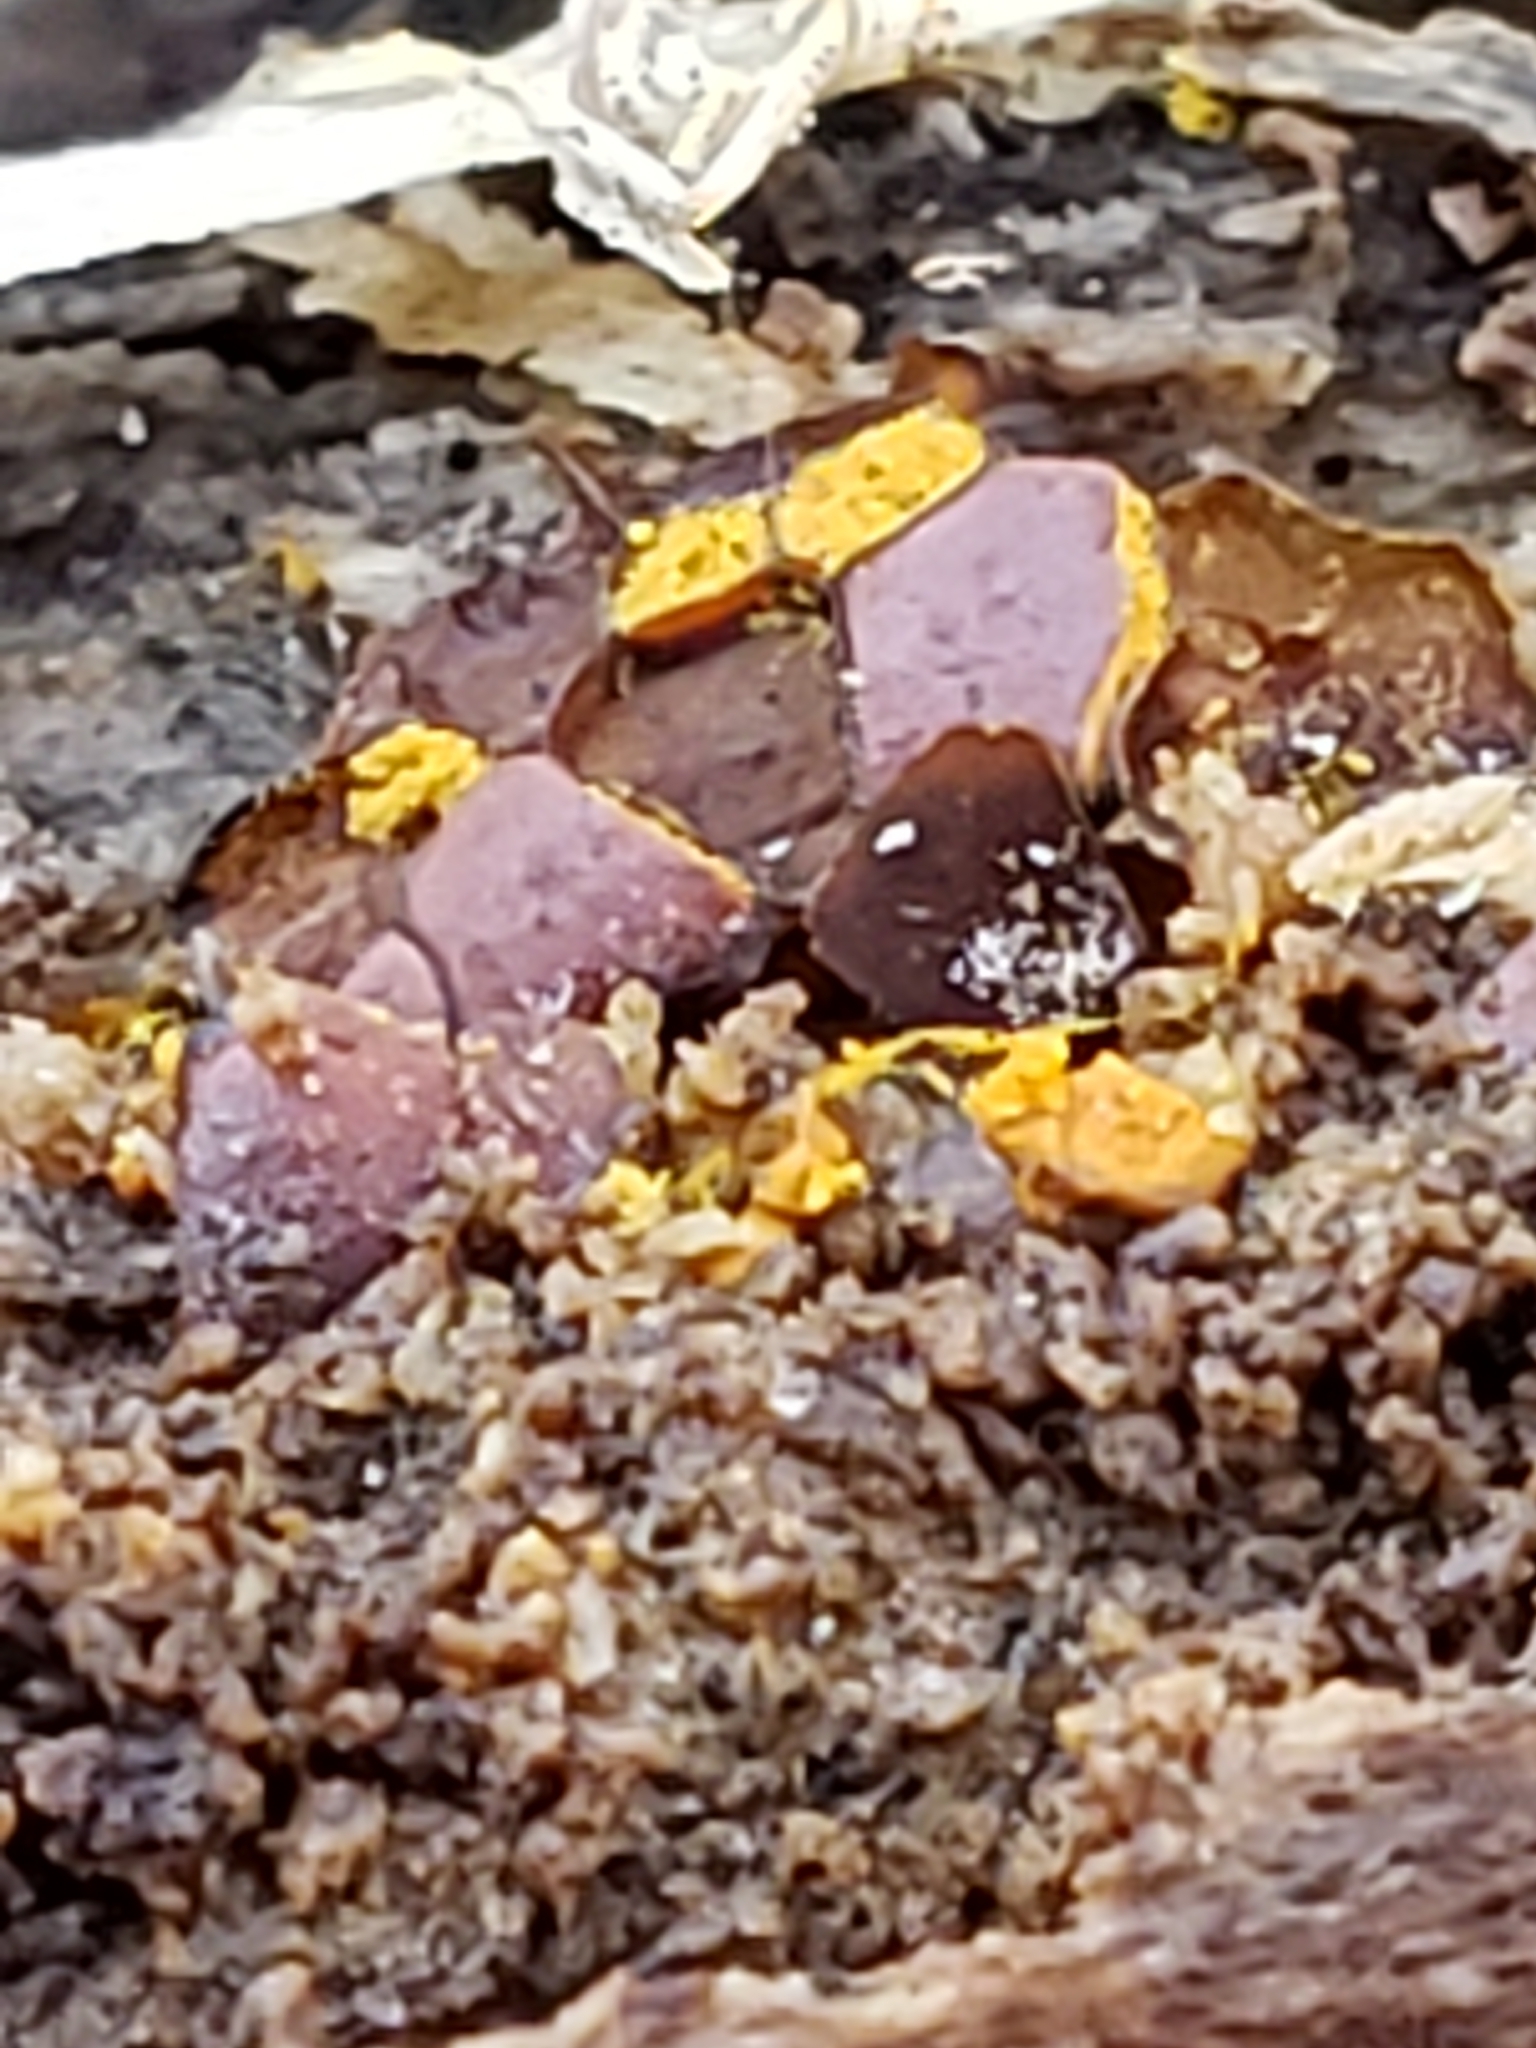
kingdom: Protozoa
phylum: Mycetozoa
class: Myxomycetes
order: Trichiales
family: Trichiaceae
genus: Perichaena
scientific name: Perichaena depressa
